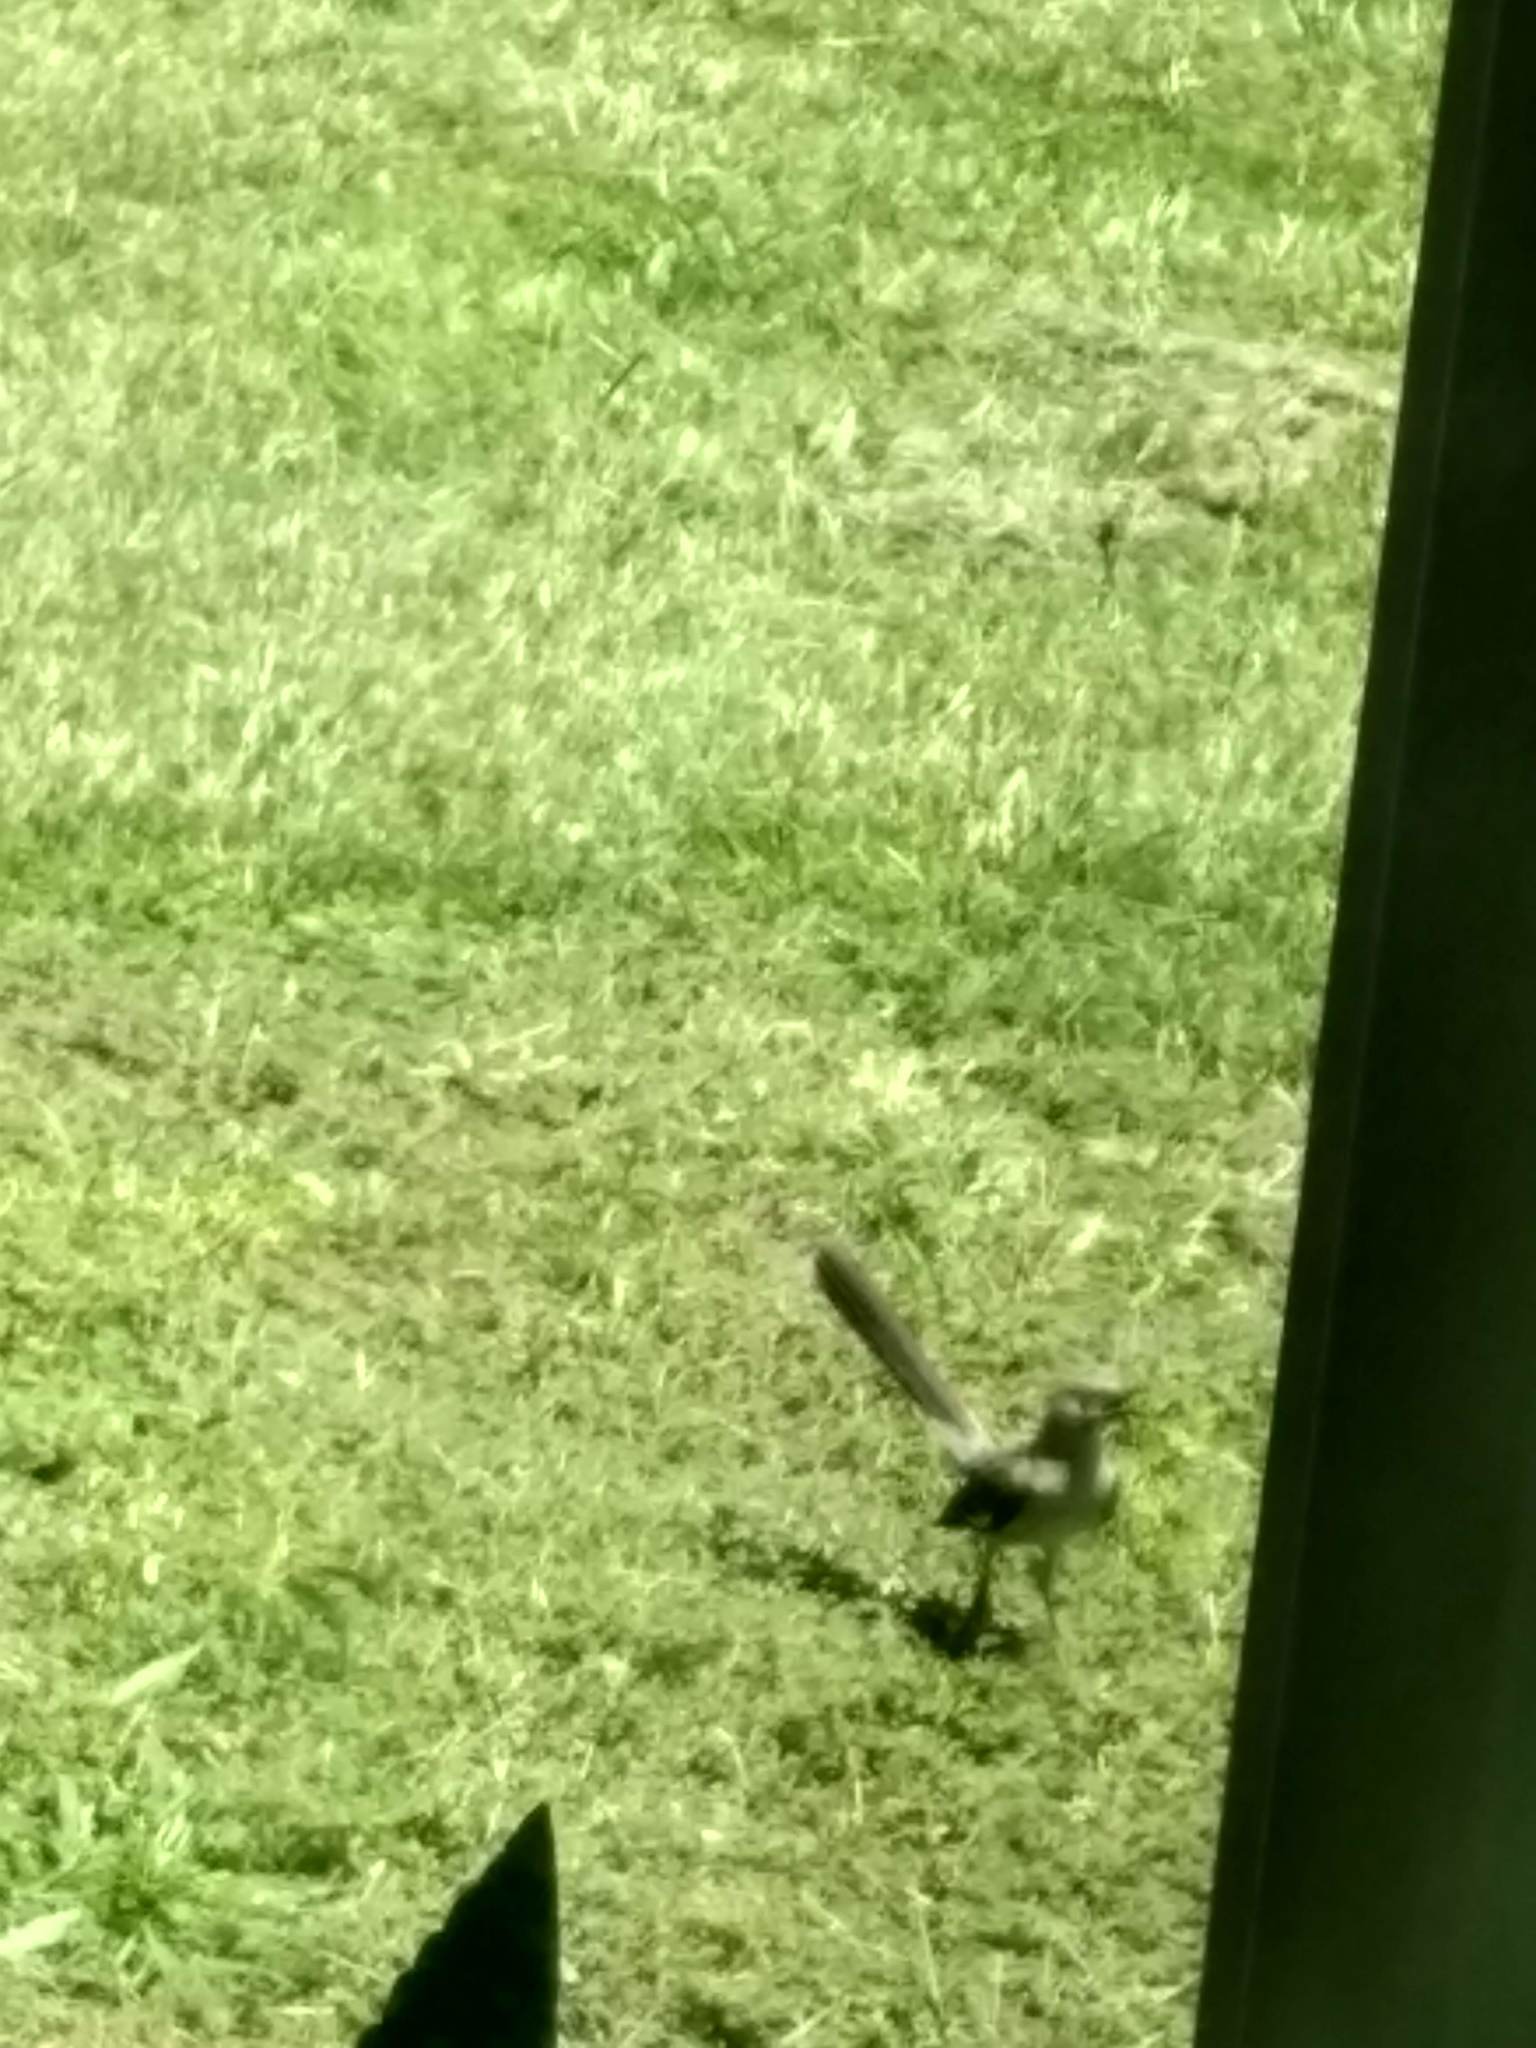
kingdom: Animalia
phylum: Chordata
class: Aves
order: Passeriformes
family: Mimidae
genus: Mimus
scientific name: Mimus polyglottos
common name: Northern mockingbird
